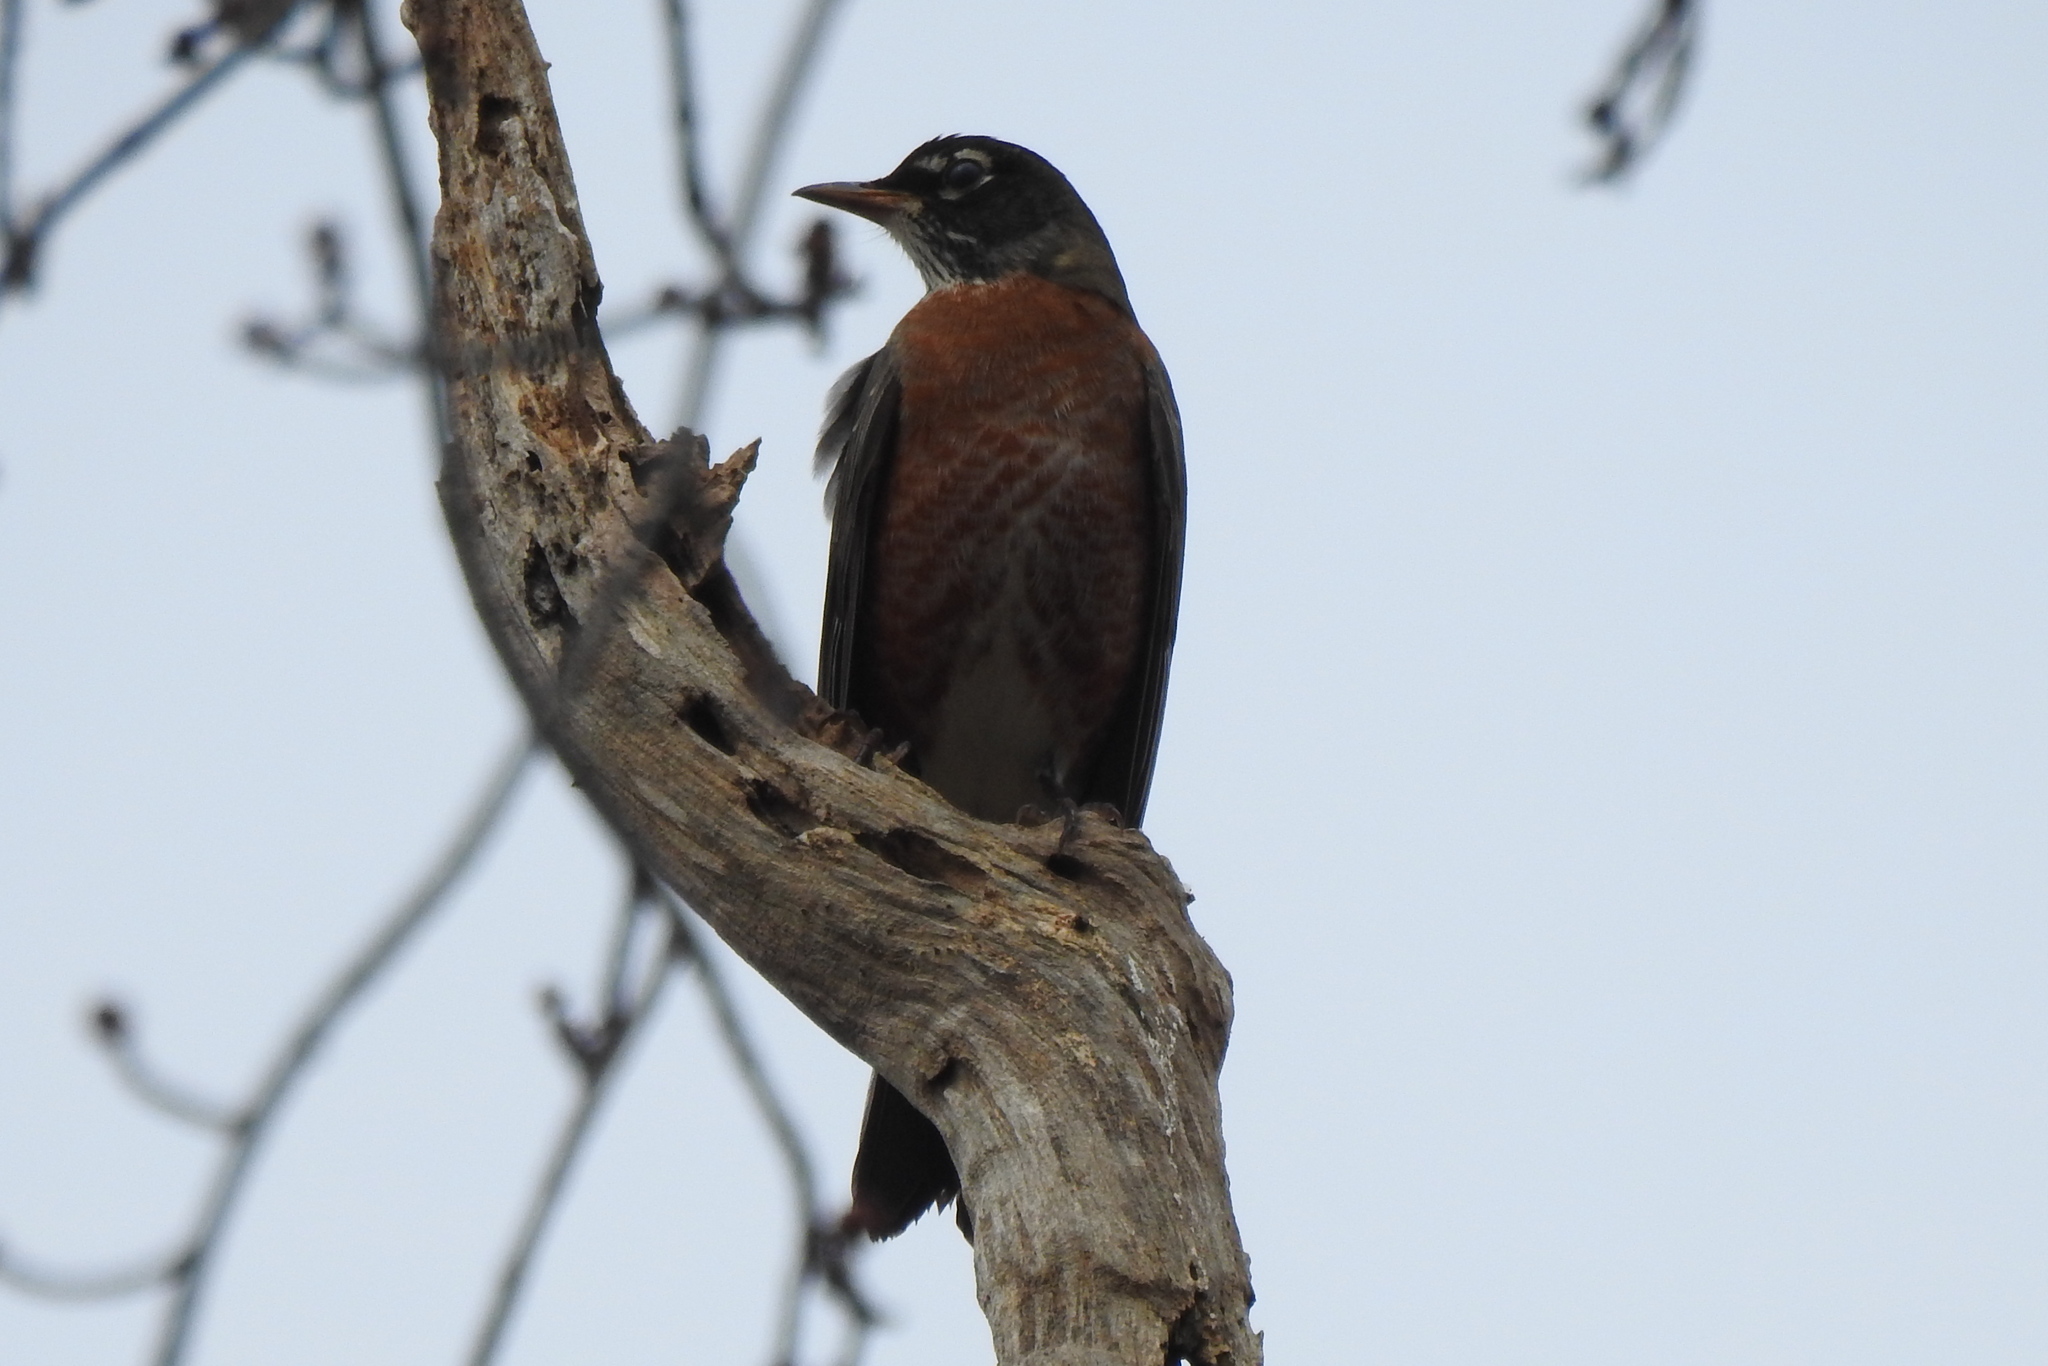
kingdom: Animalia
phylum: Chordata
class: Aves
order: Passeriformes
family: Turdidae
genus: Turdus
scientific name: Turdus migratorius
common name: American robin
